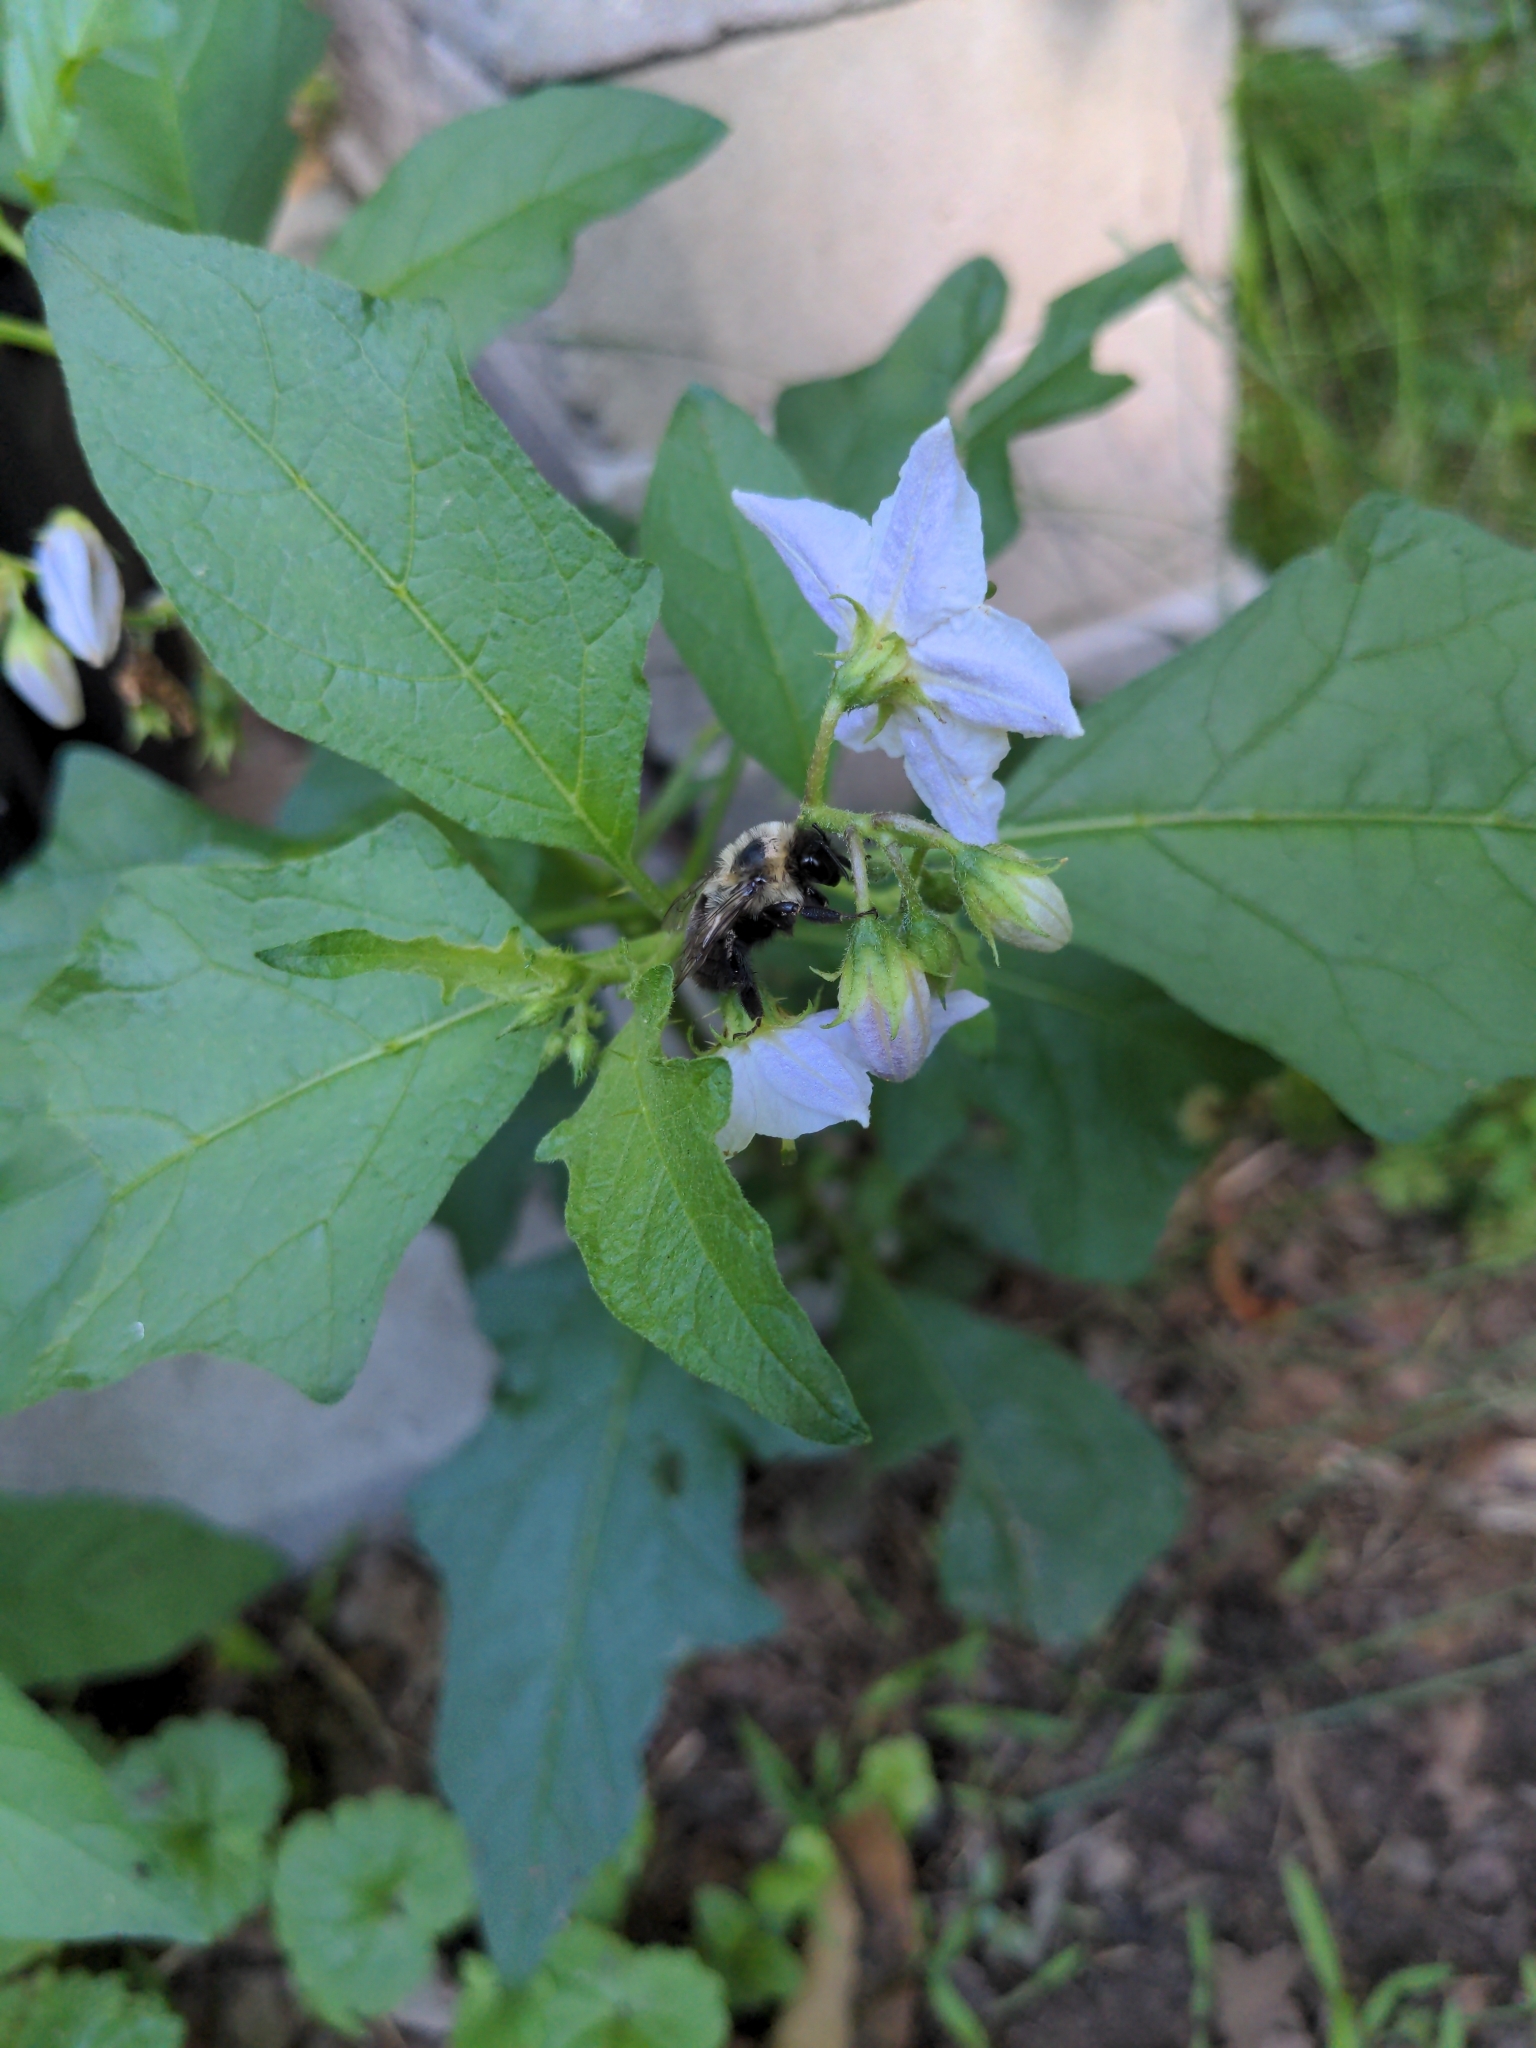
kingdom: Plantae
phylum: Tracheophyta
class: Magnoliopsida
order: Solanales
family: Solanaceae
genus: Solanum
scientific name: Solanum carolinense
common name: Horse-nettle
